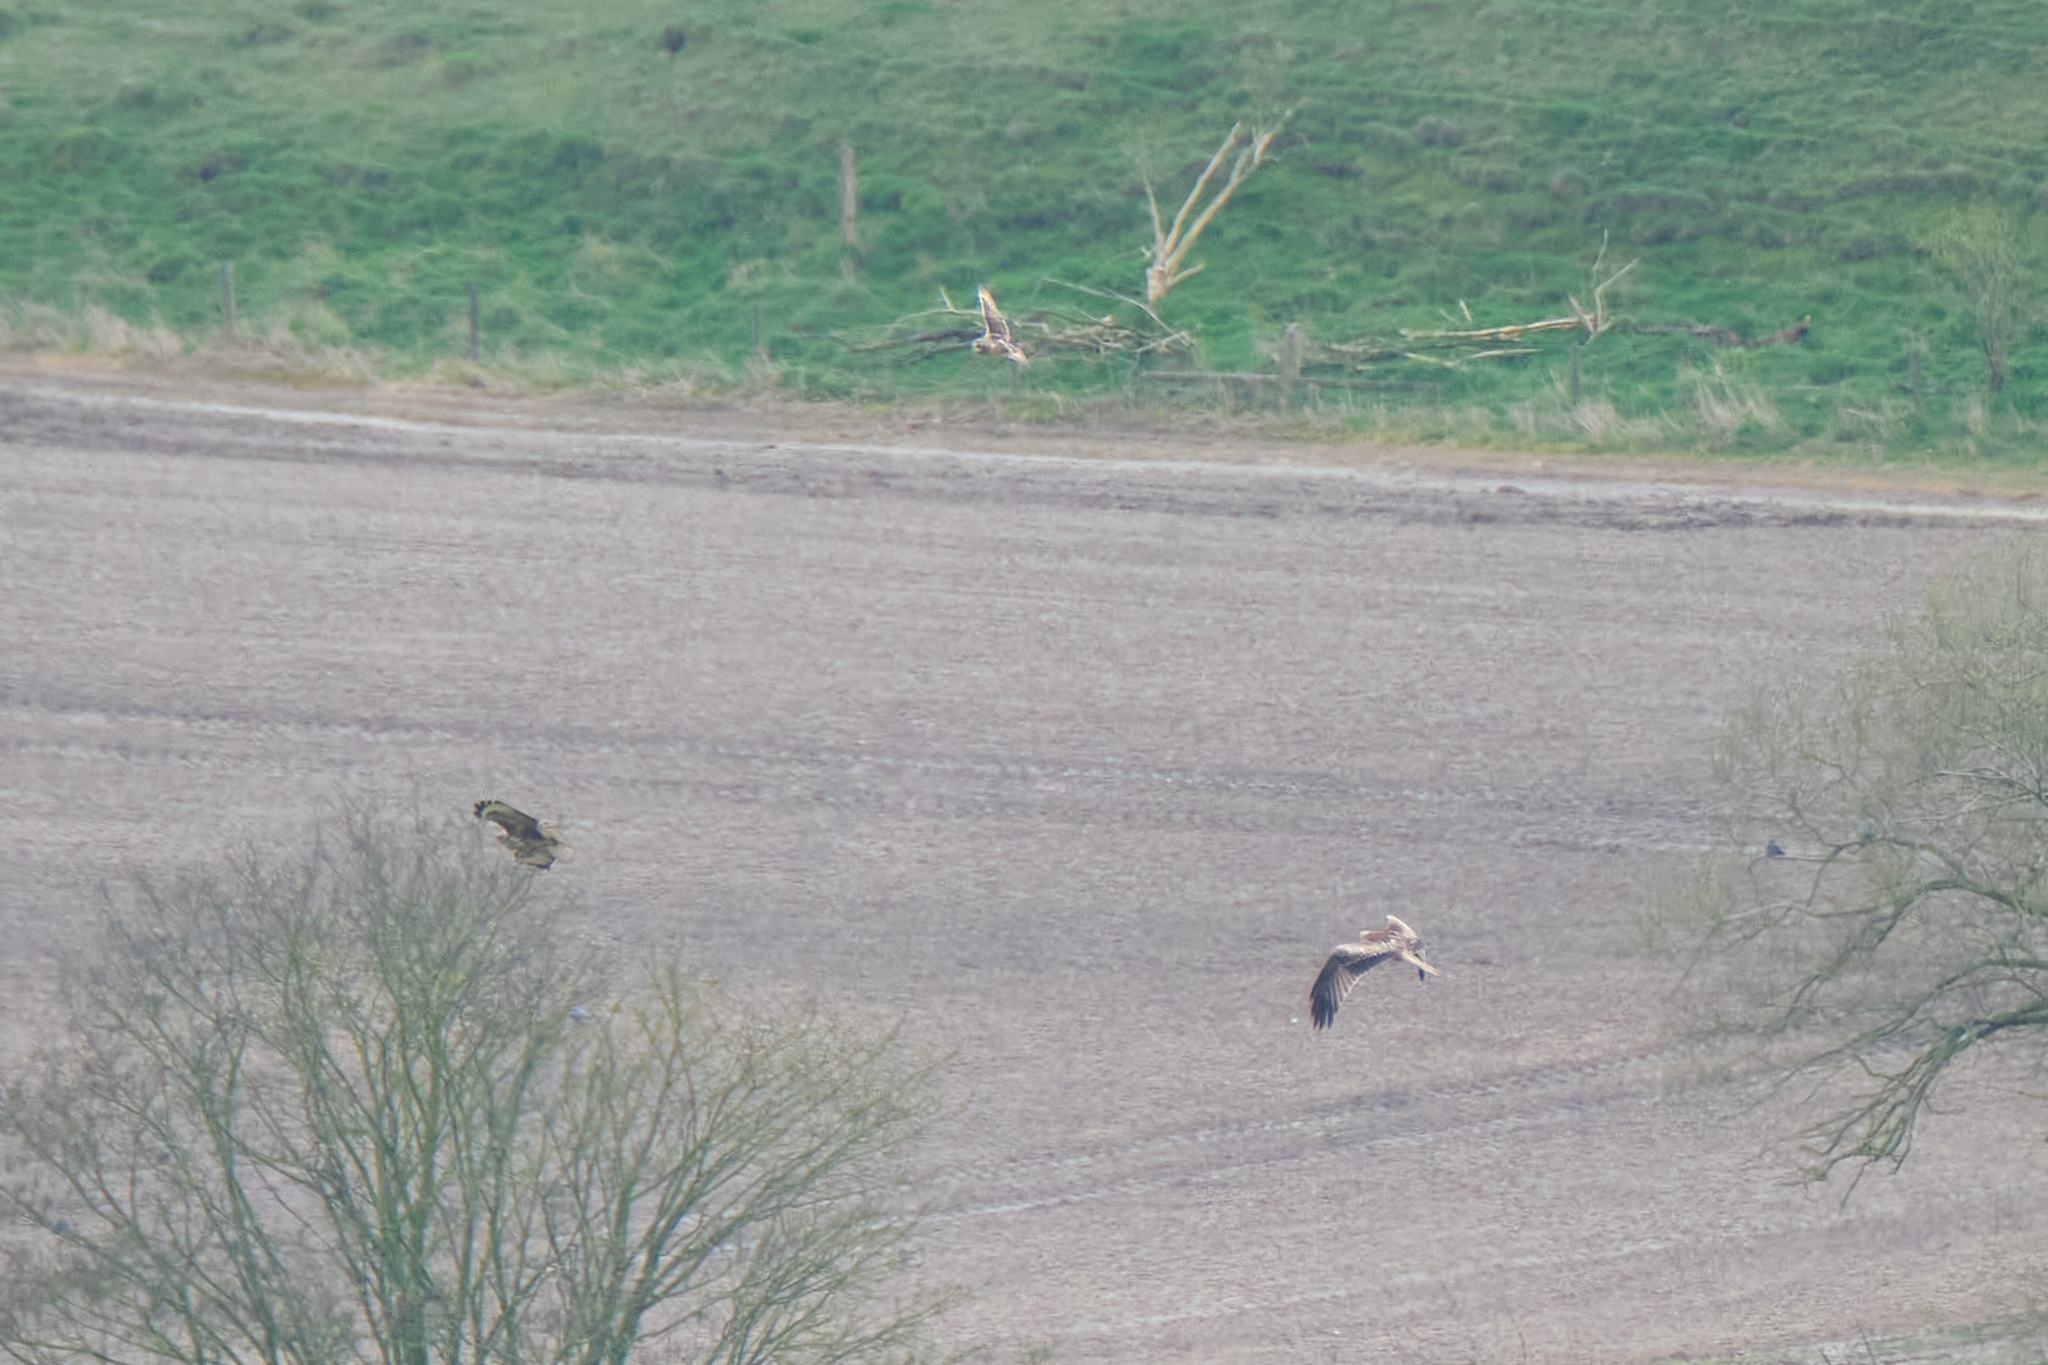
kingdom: Animalia
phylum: Chordata
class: Aves
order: Strigiformes
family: Strigidae
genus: Asio
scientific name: Asio flammeus
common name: Short-eared owl
